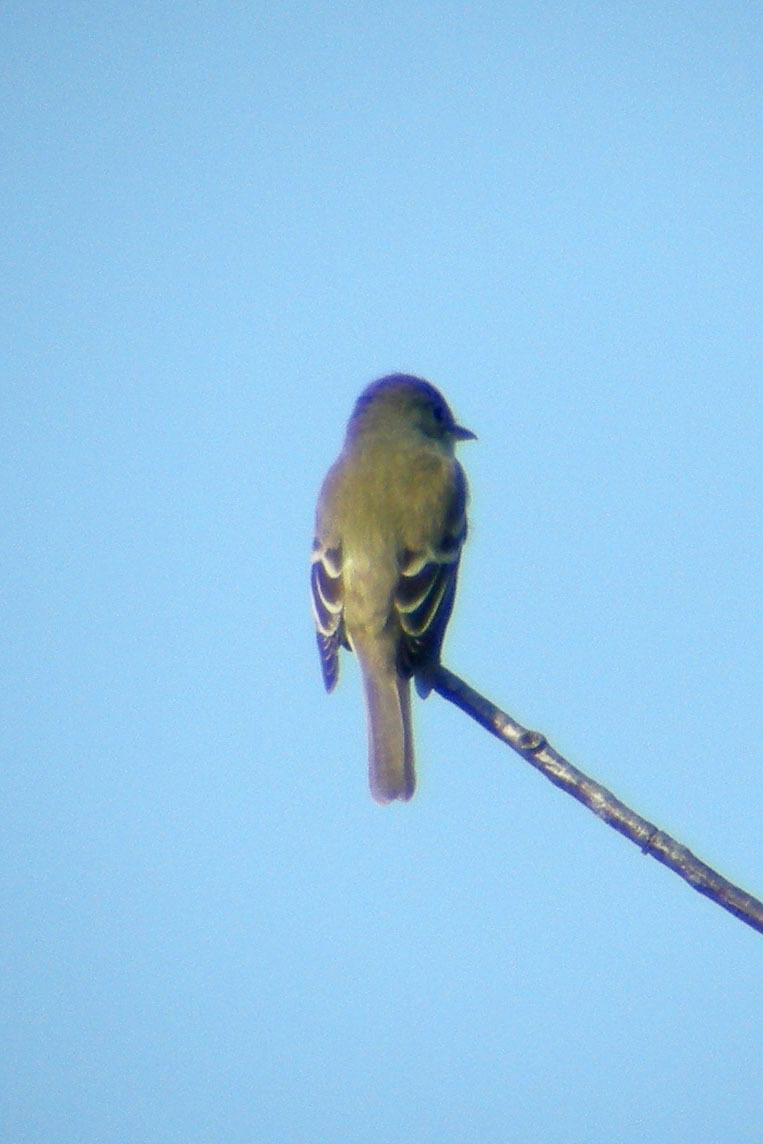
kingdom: Animalia
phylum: Chordata
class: Aves
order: Passeriformes
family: Tyrannidae
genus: Empidonax
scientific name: Empidonax traillii
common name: Willow flycatcher
